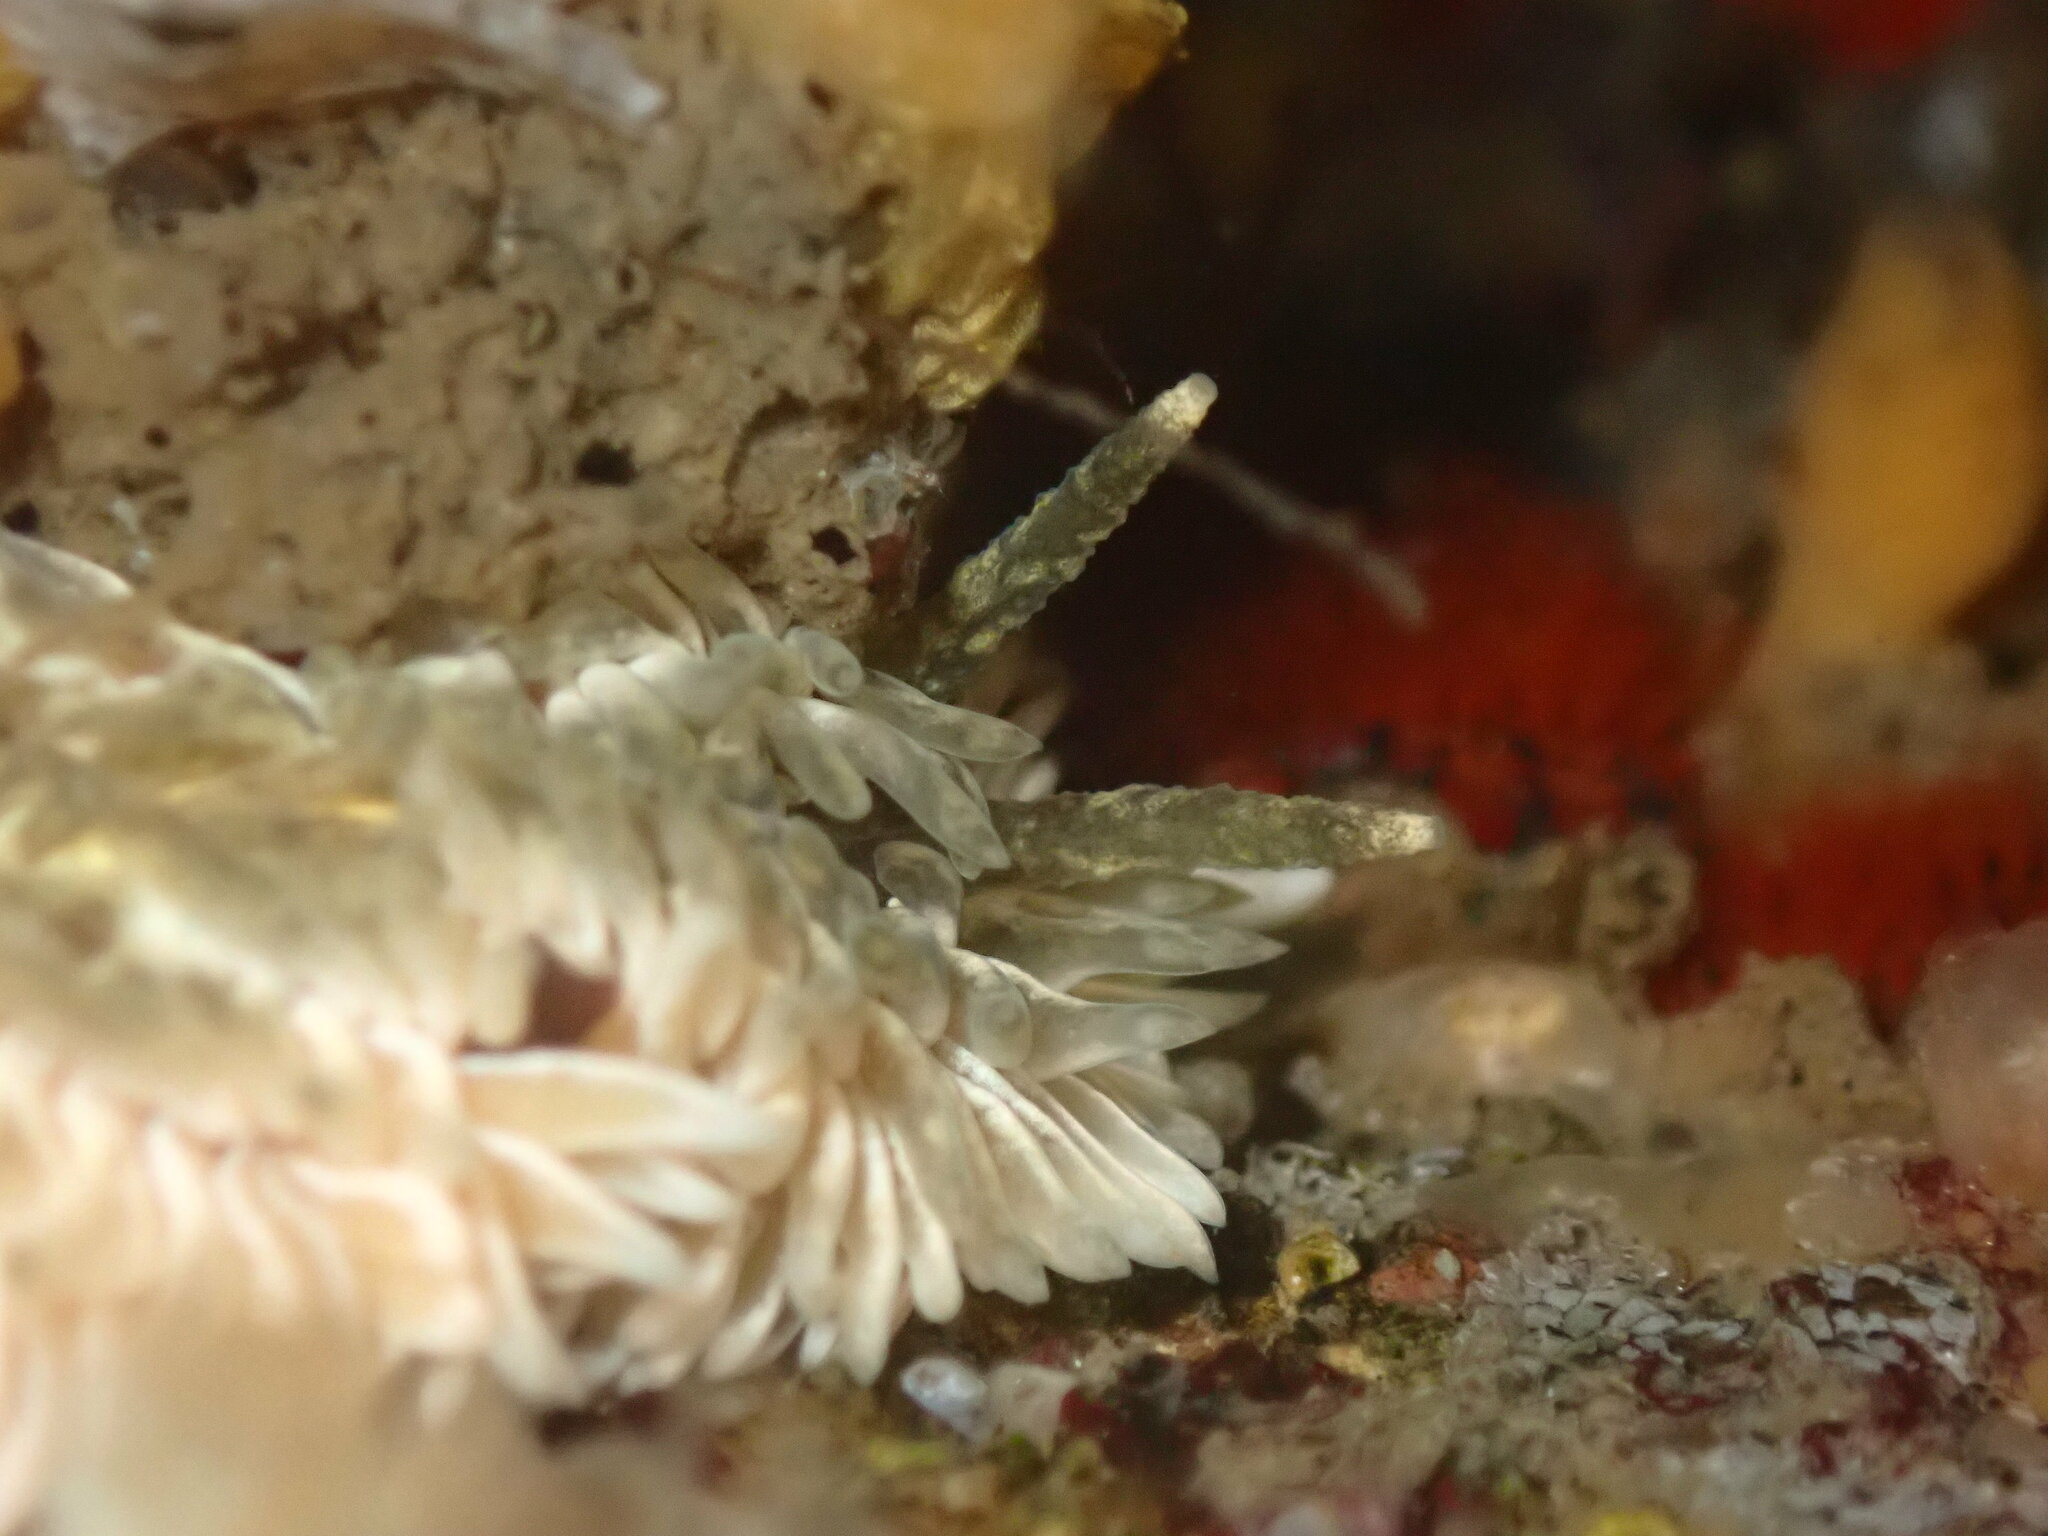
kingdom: Animalia
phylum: Mollusca
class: Gastropoda
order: Nudibranchia
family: Aeolidiidae
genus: Aeolidia
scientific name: Aeolidia loui
